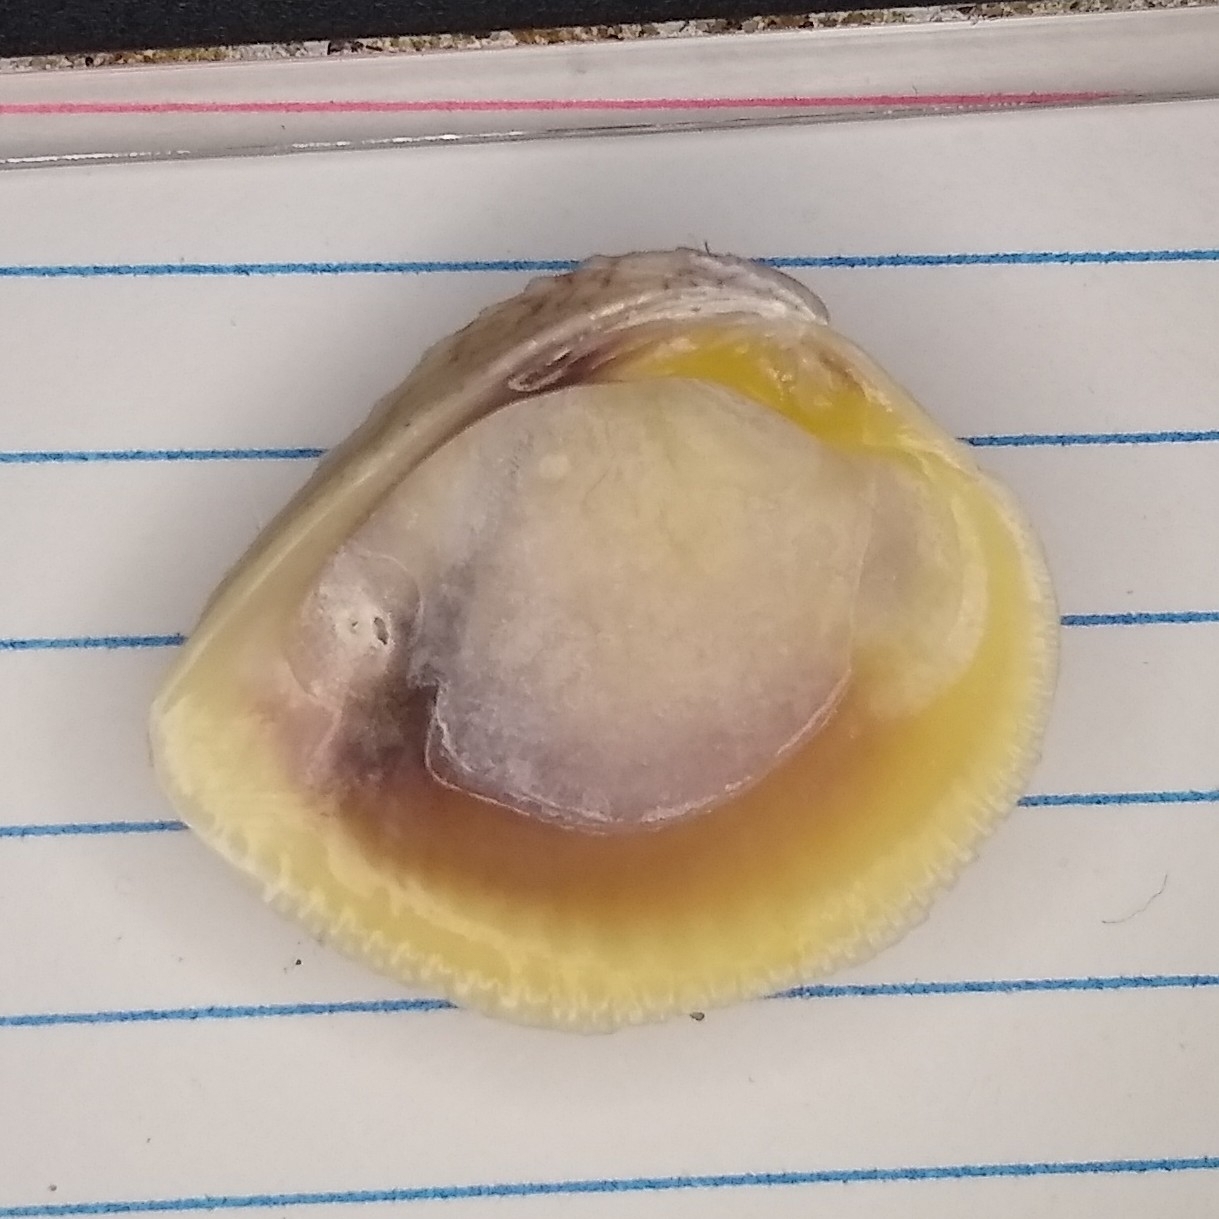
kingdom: Animalia
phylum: Mollusca
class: Bivalvia
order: Venerida
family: Veneridae
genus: Chione
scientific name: Chione elevata
